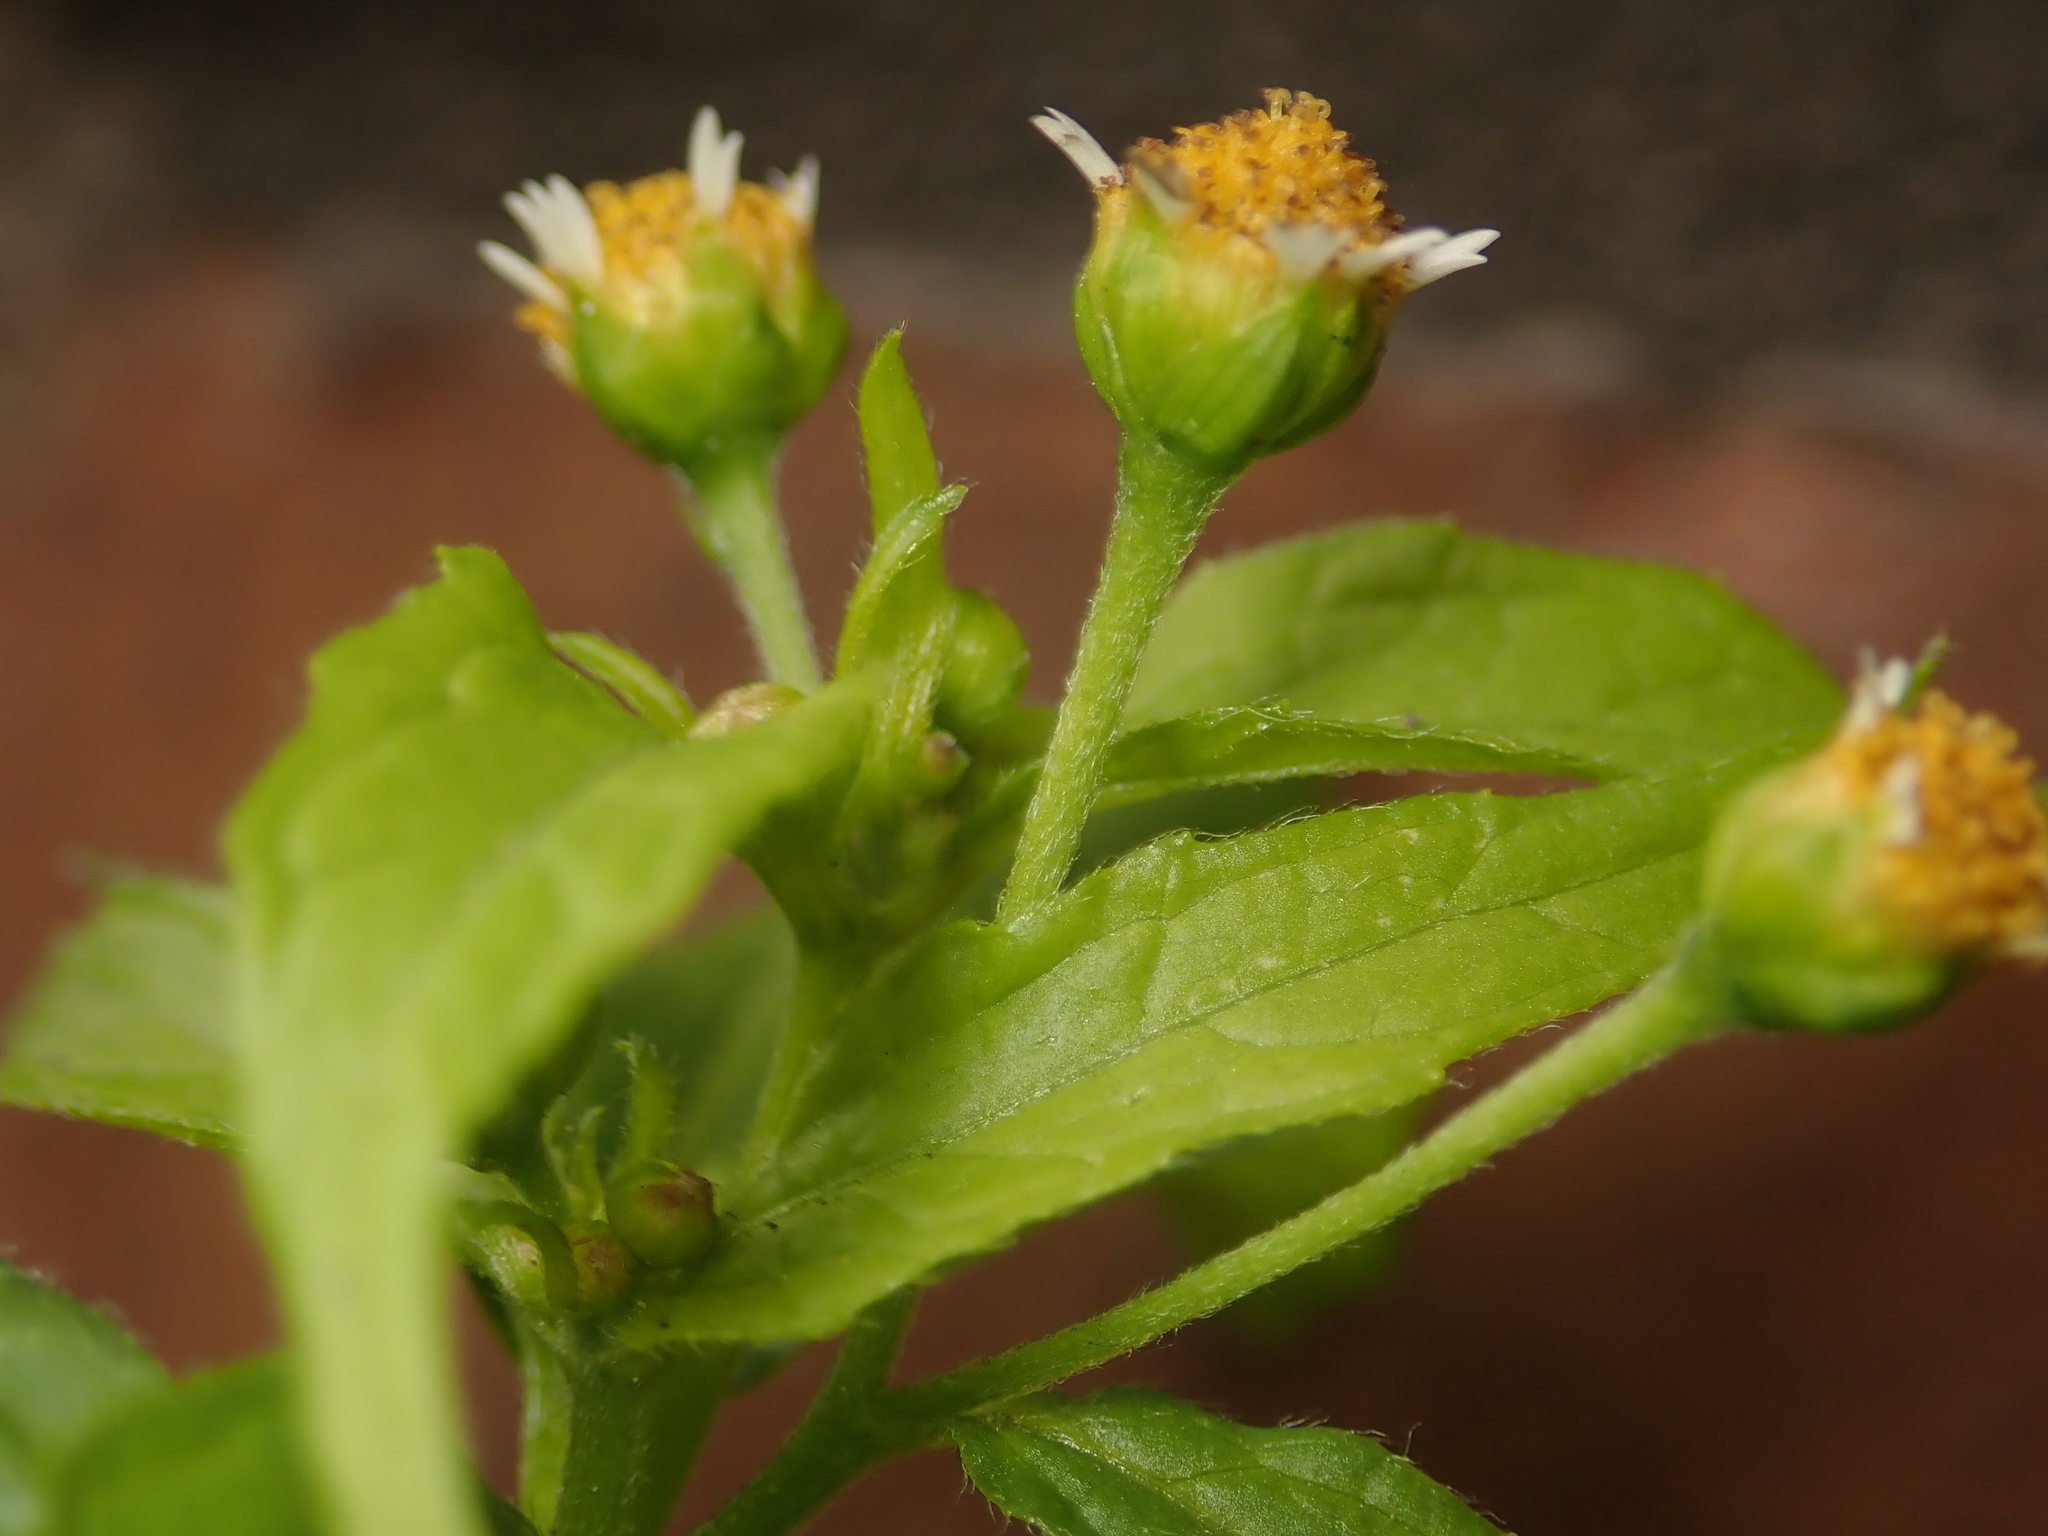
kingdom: Plantae
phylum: Tracheophyta
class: Magnoliopsida
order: Asterales
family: Asteraceae
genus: Galinsoga
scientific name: Galinsoga parviflora
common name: Gallant soldier
